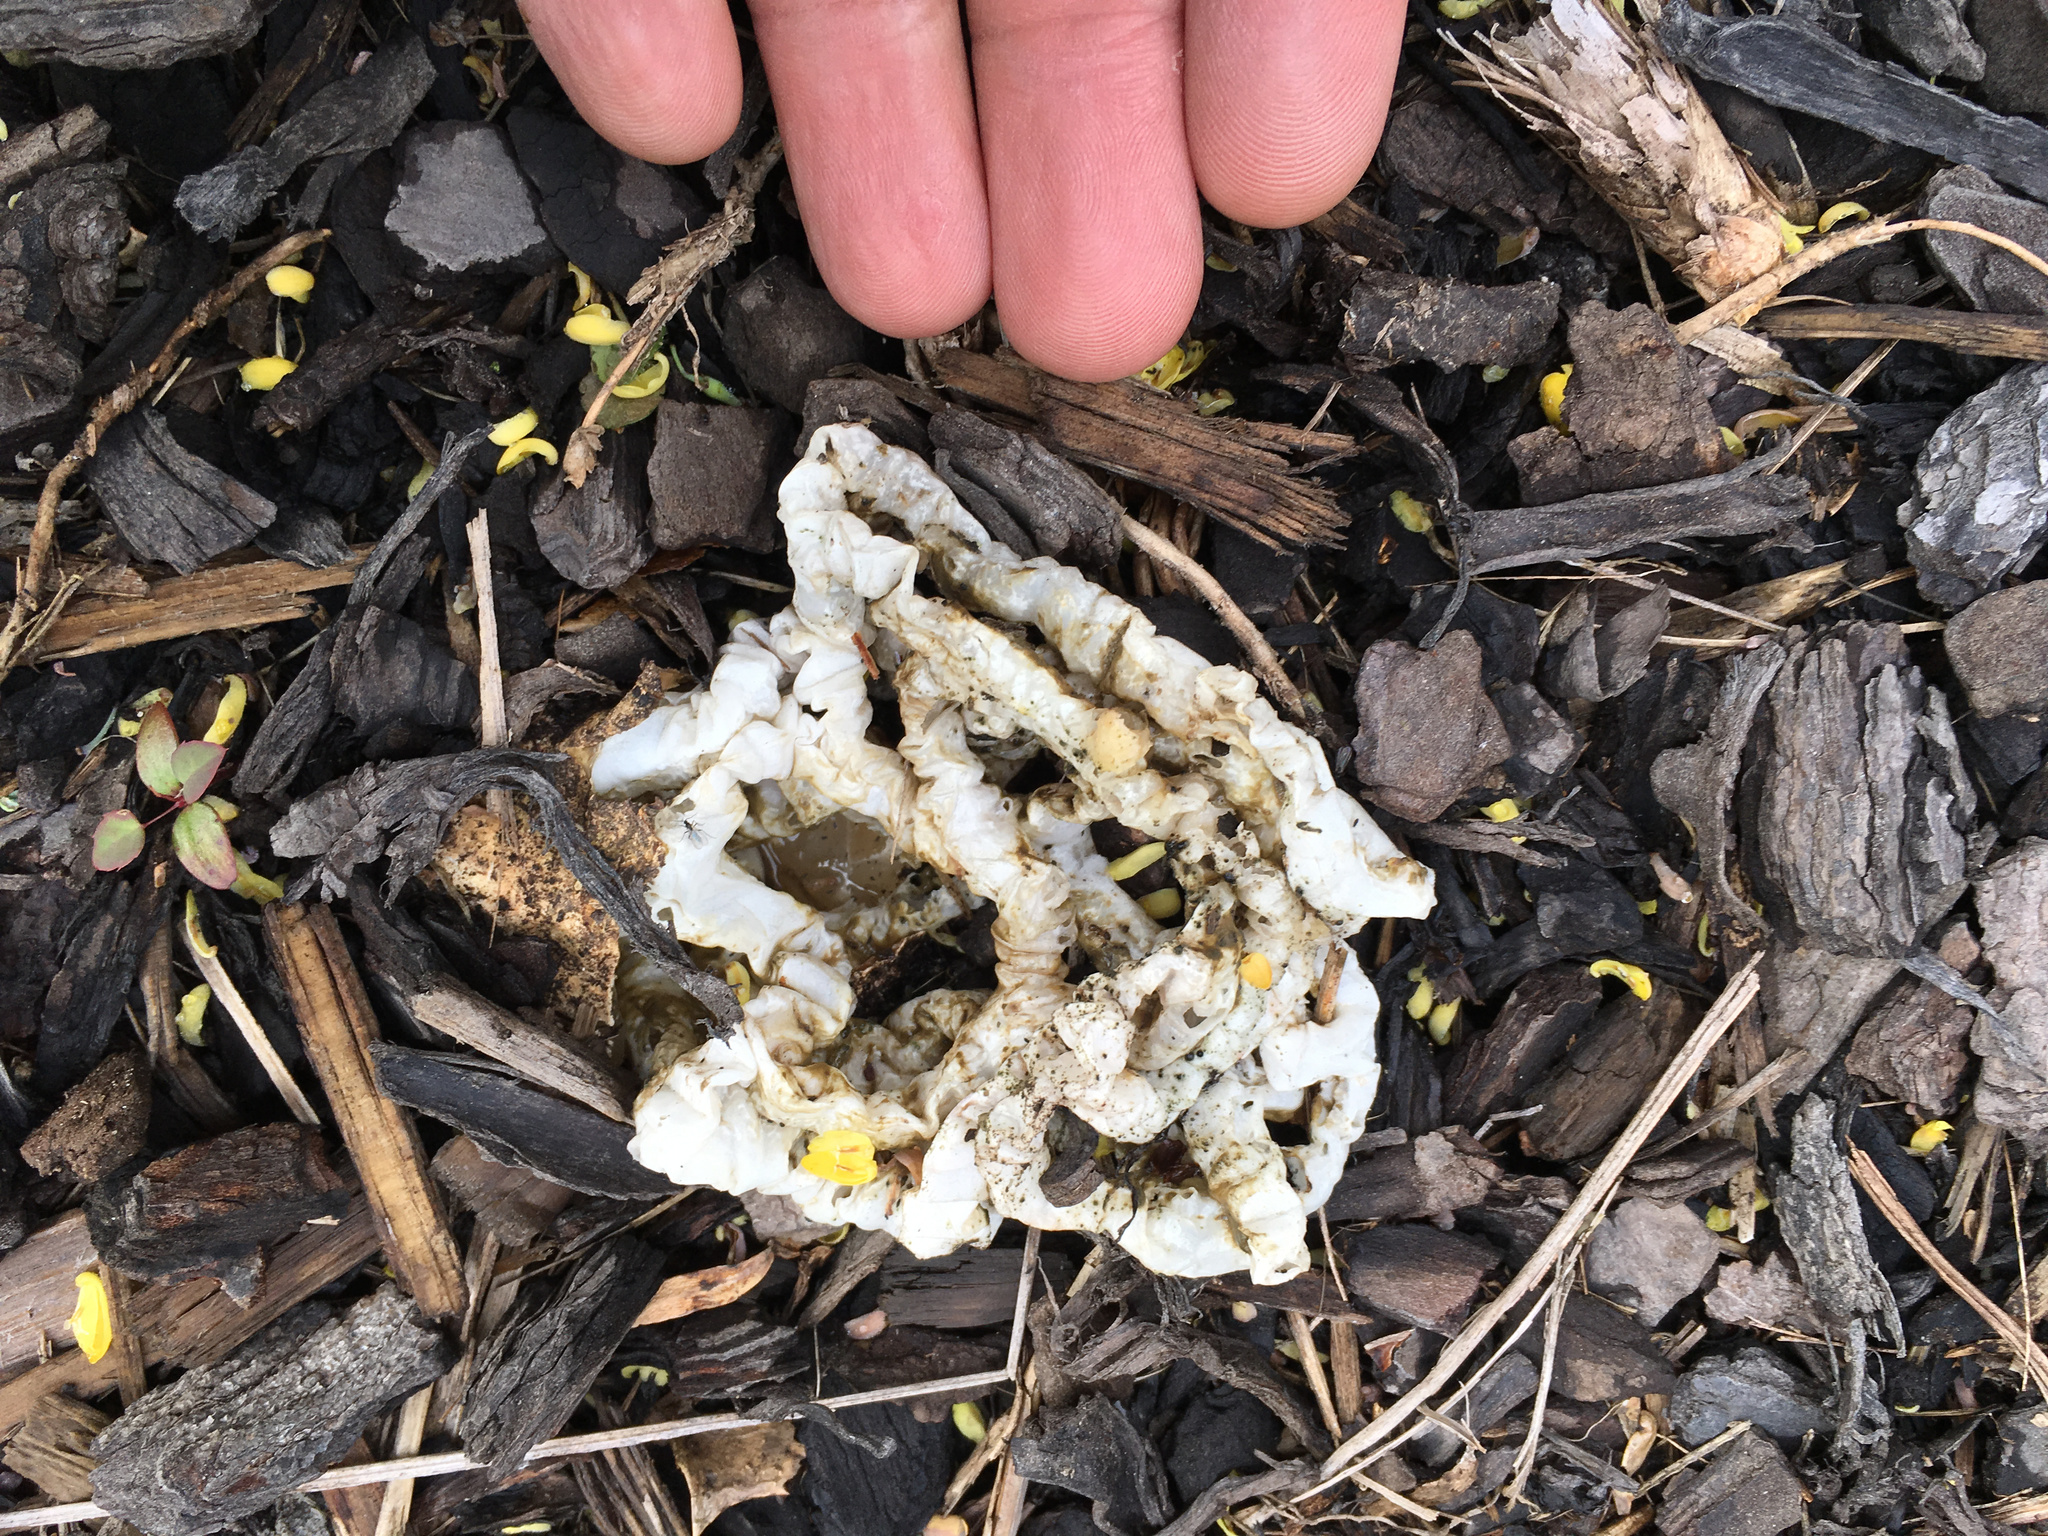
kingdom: Fungi
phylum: Basidiomycota
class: Agaricomycetes
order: Phallales
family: Phallaceae
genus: Ileodictyon
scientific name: Ileodictyon cibarium
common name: Basket fungus
